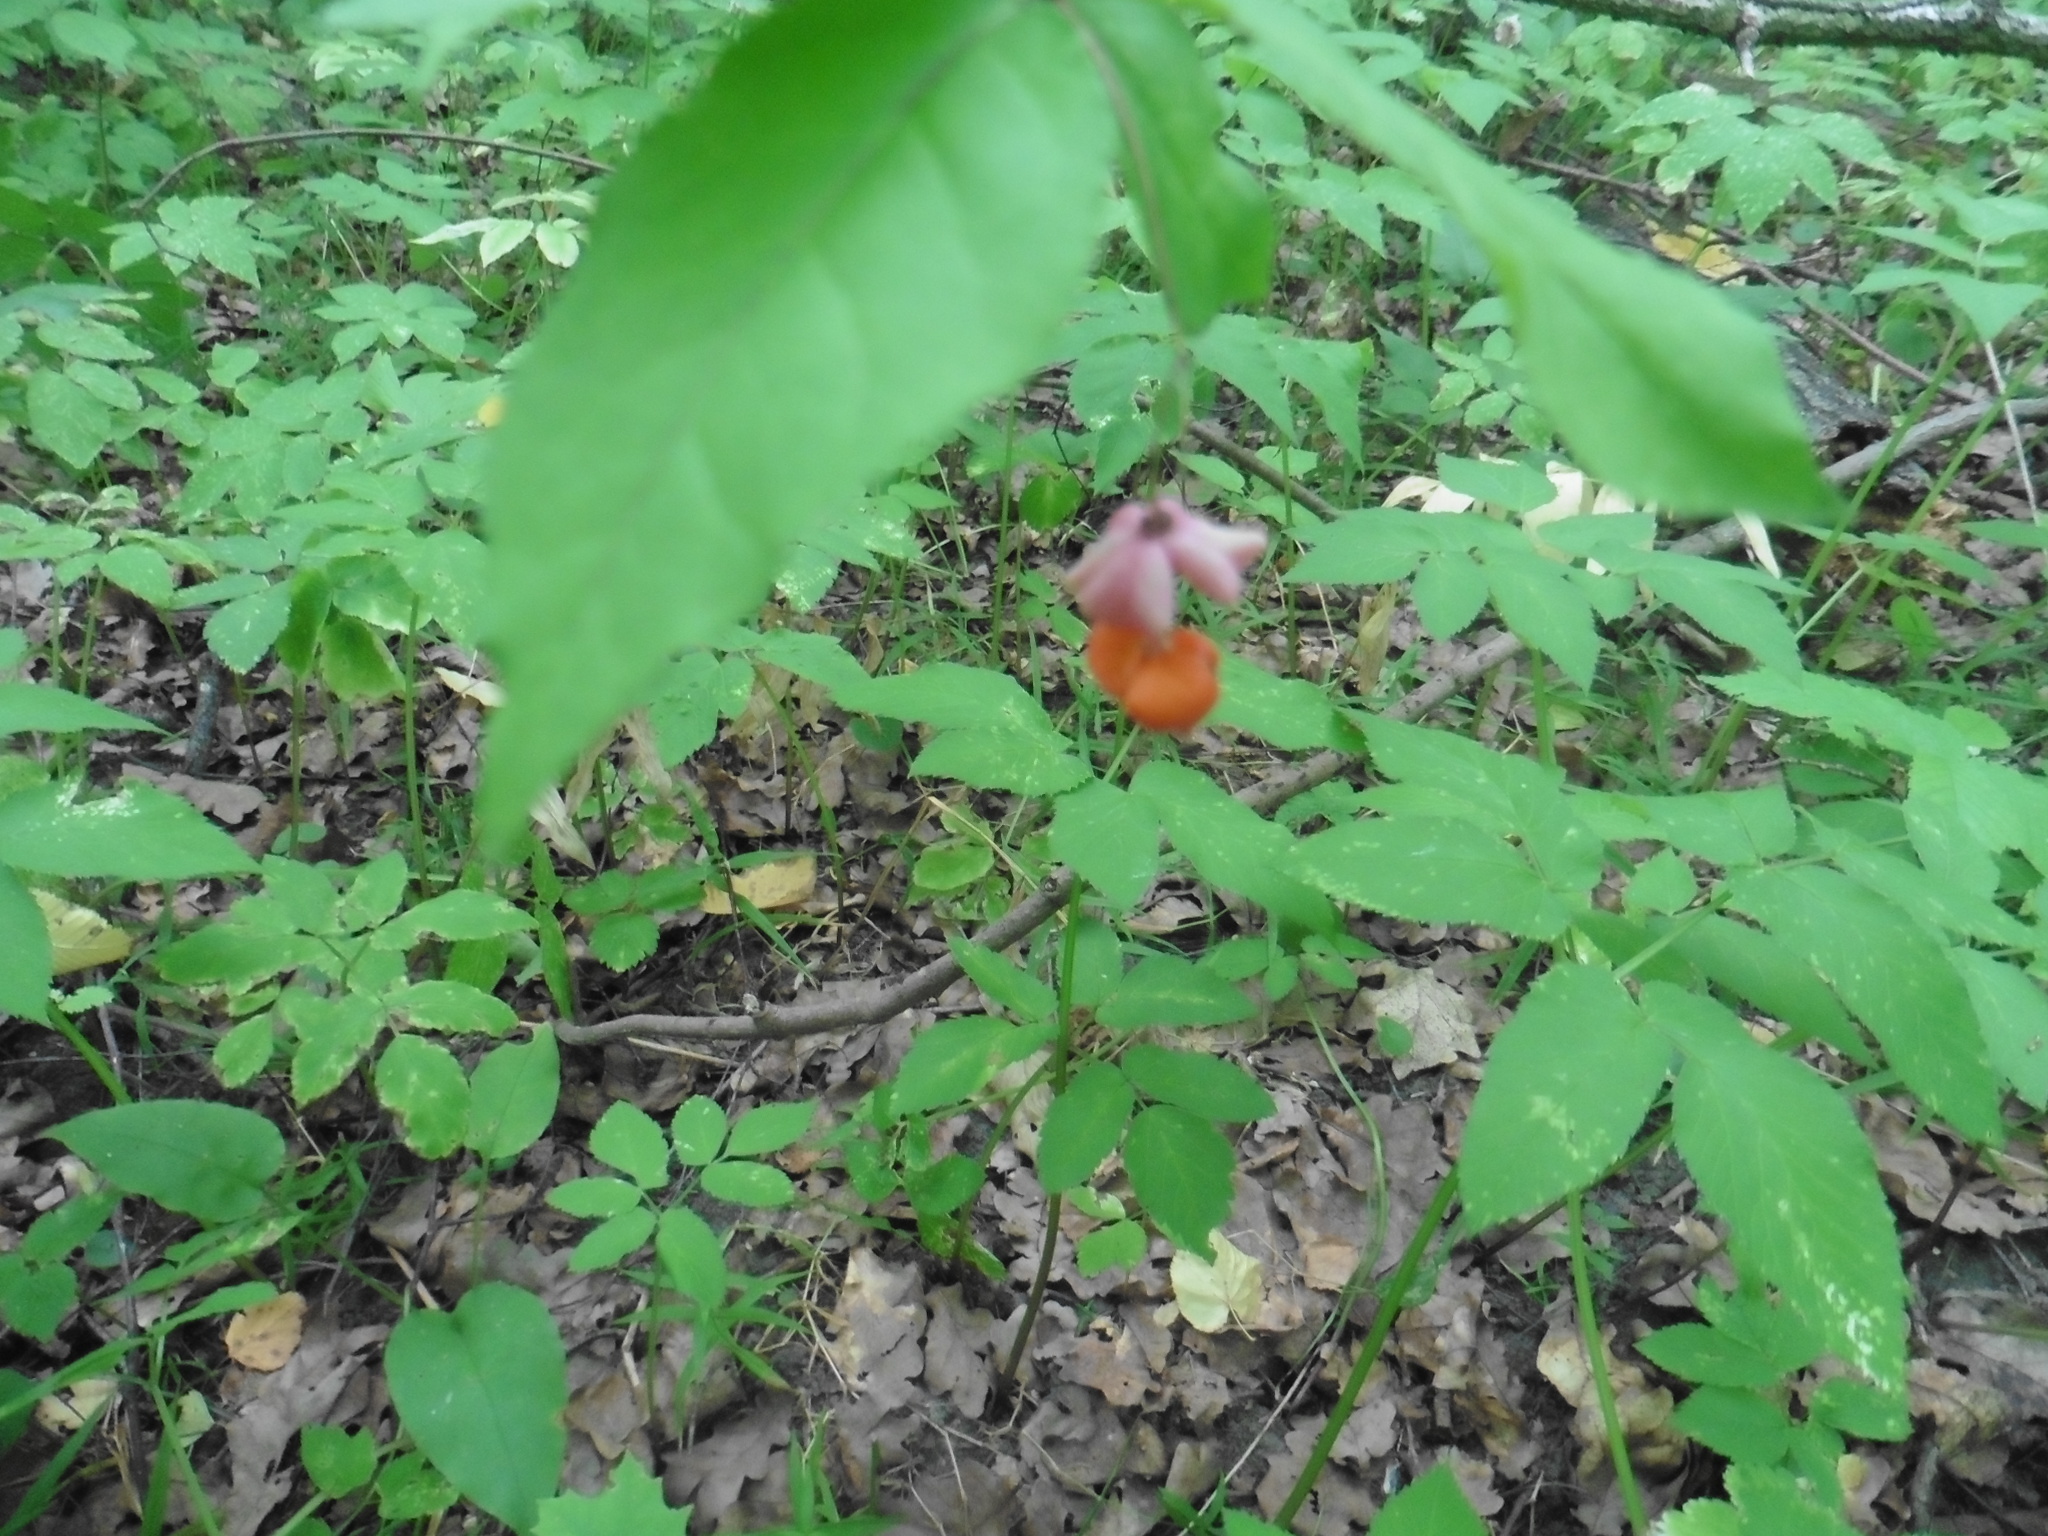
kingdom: Plantae
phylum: Tracheophyta
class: Magnoliopsida
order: Celastrales
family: Celastraceae
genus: Euonymus
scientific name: Euonymus verrucosus
